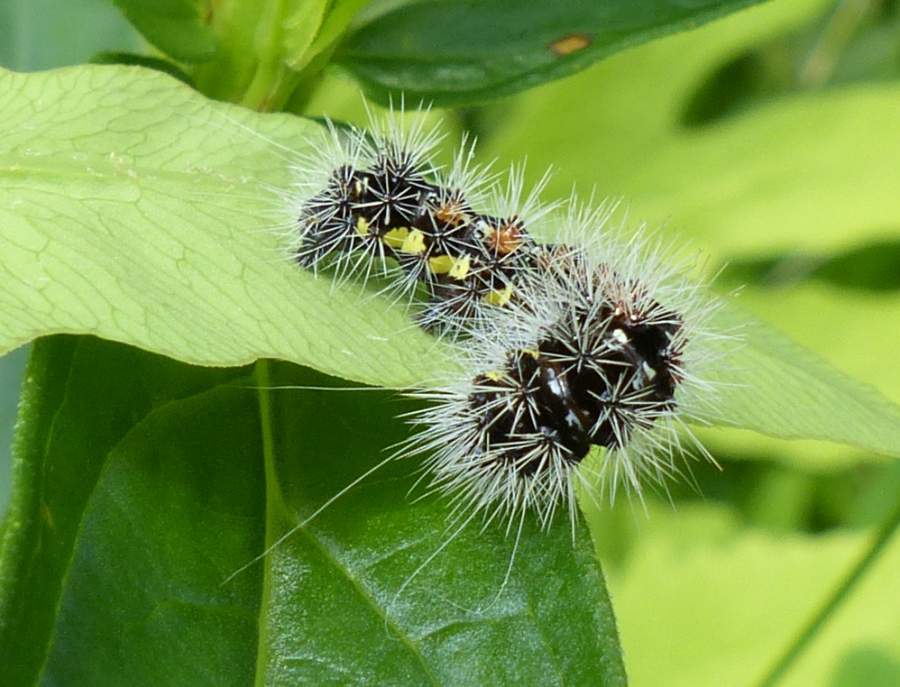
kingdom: Animalia
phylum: Arthropoda
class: Insecta
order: Lepidoptera
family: Noctuidae
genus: Acronicta
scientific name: Acronicta oblinita
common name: Smeared dagger
